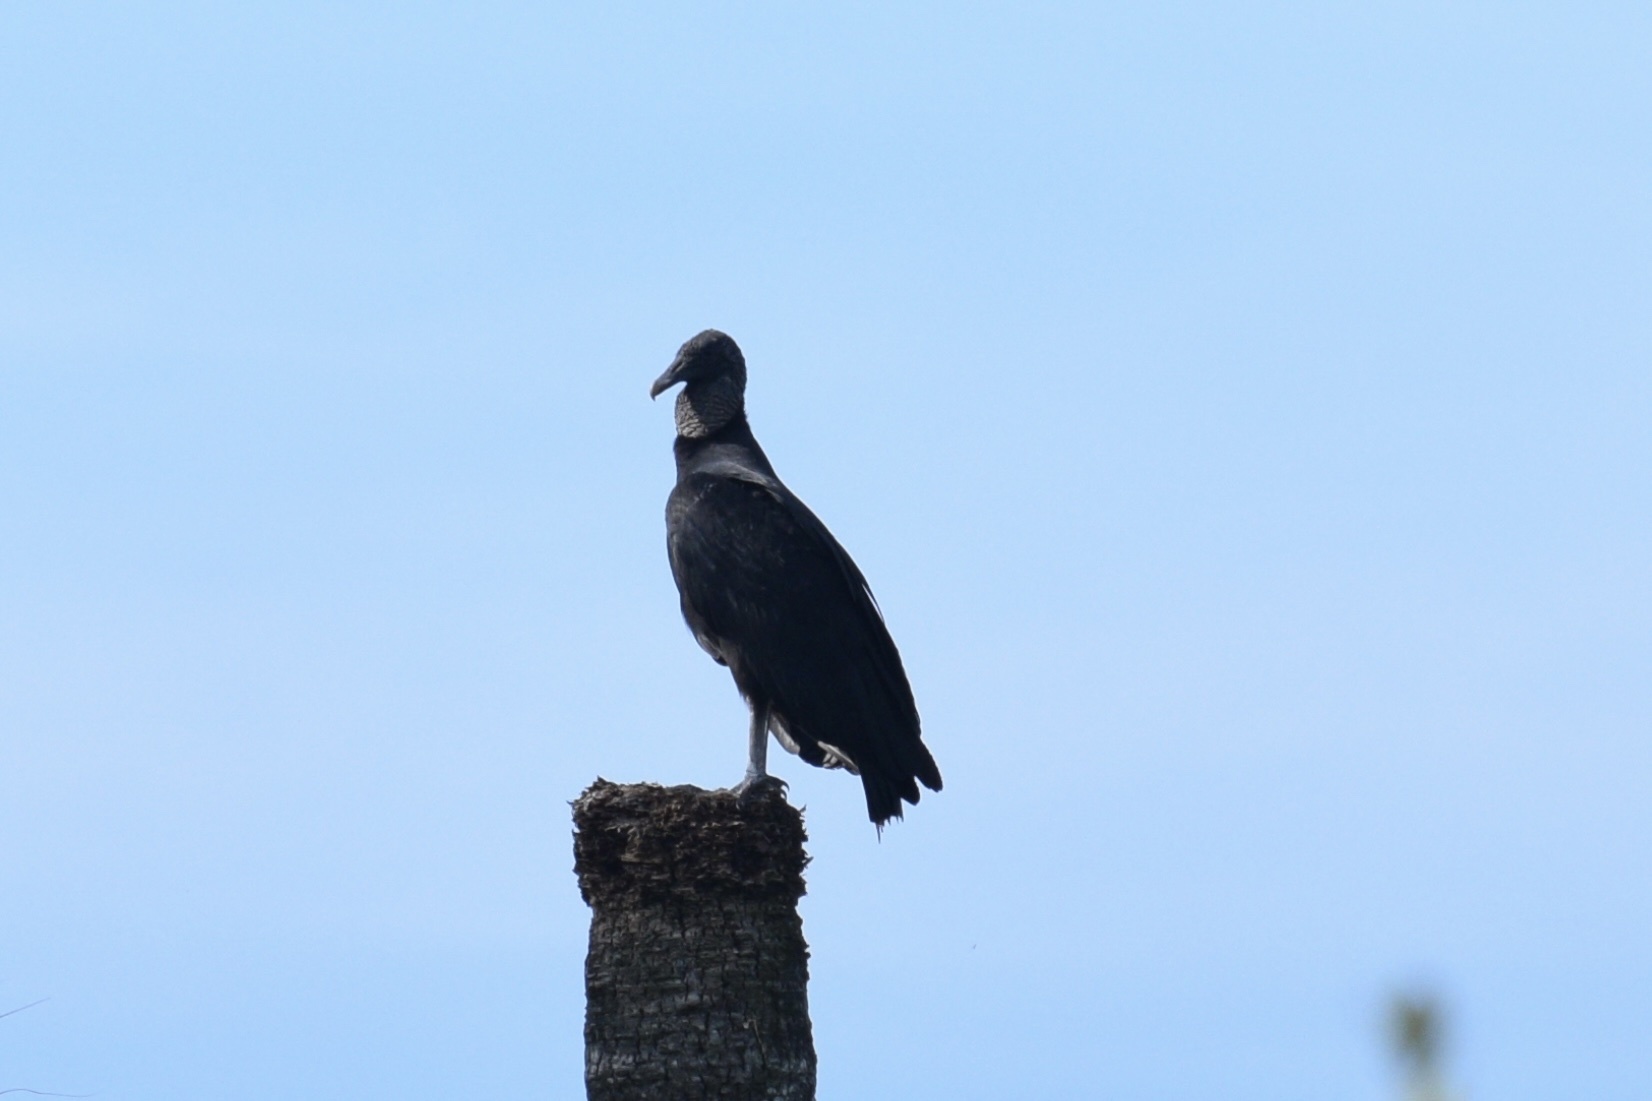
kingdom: Animalia
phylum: Chordata
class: Aves
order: Accipitriformes
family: Cathartidae
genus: Coragyps
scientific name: Coragyps atratus
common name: Black vulture
